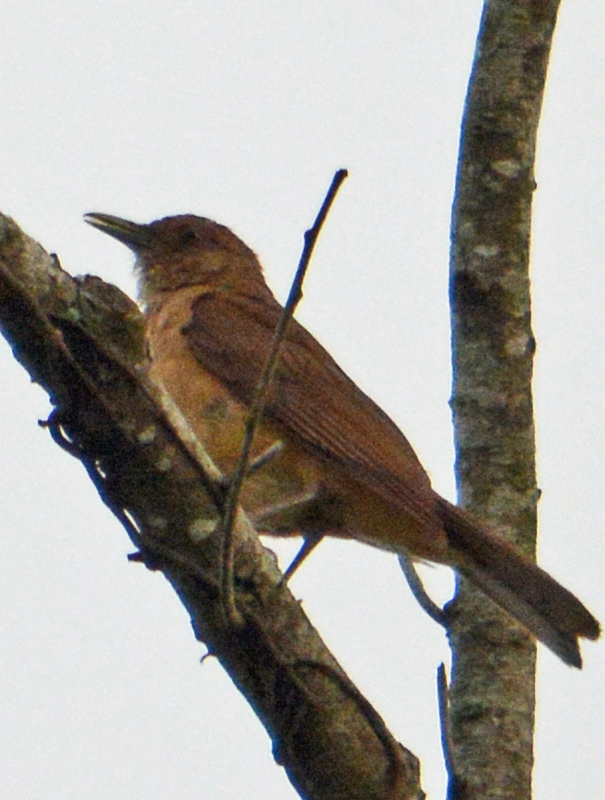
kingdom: Animalia
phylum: Chordata
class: Aves
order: Passeriformes
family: Turdidae
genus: Turdus
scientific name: Turdus grayi
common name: Clay-colored thrush
